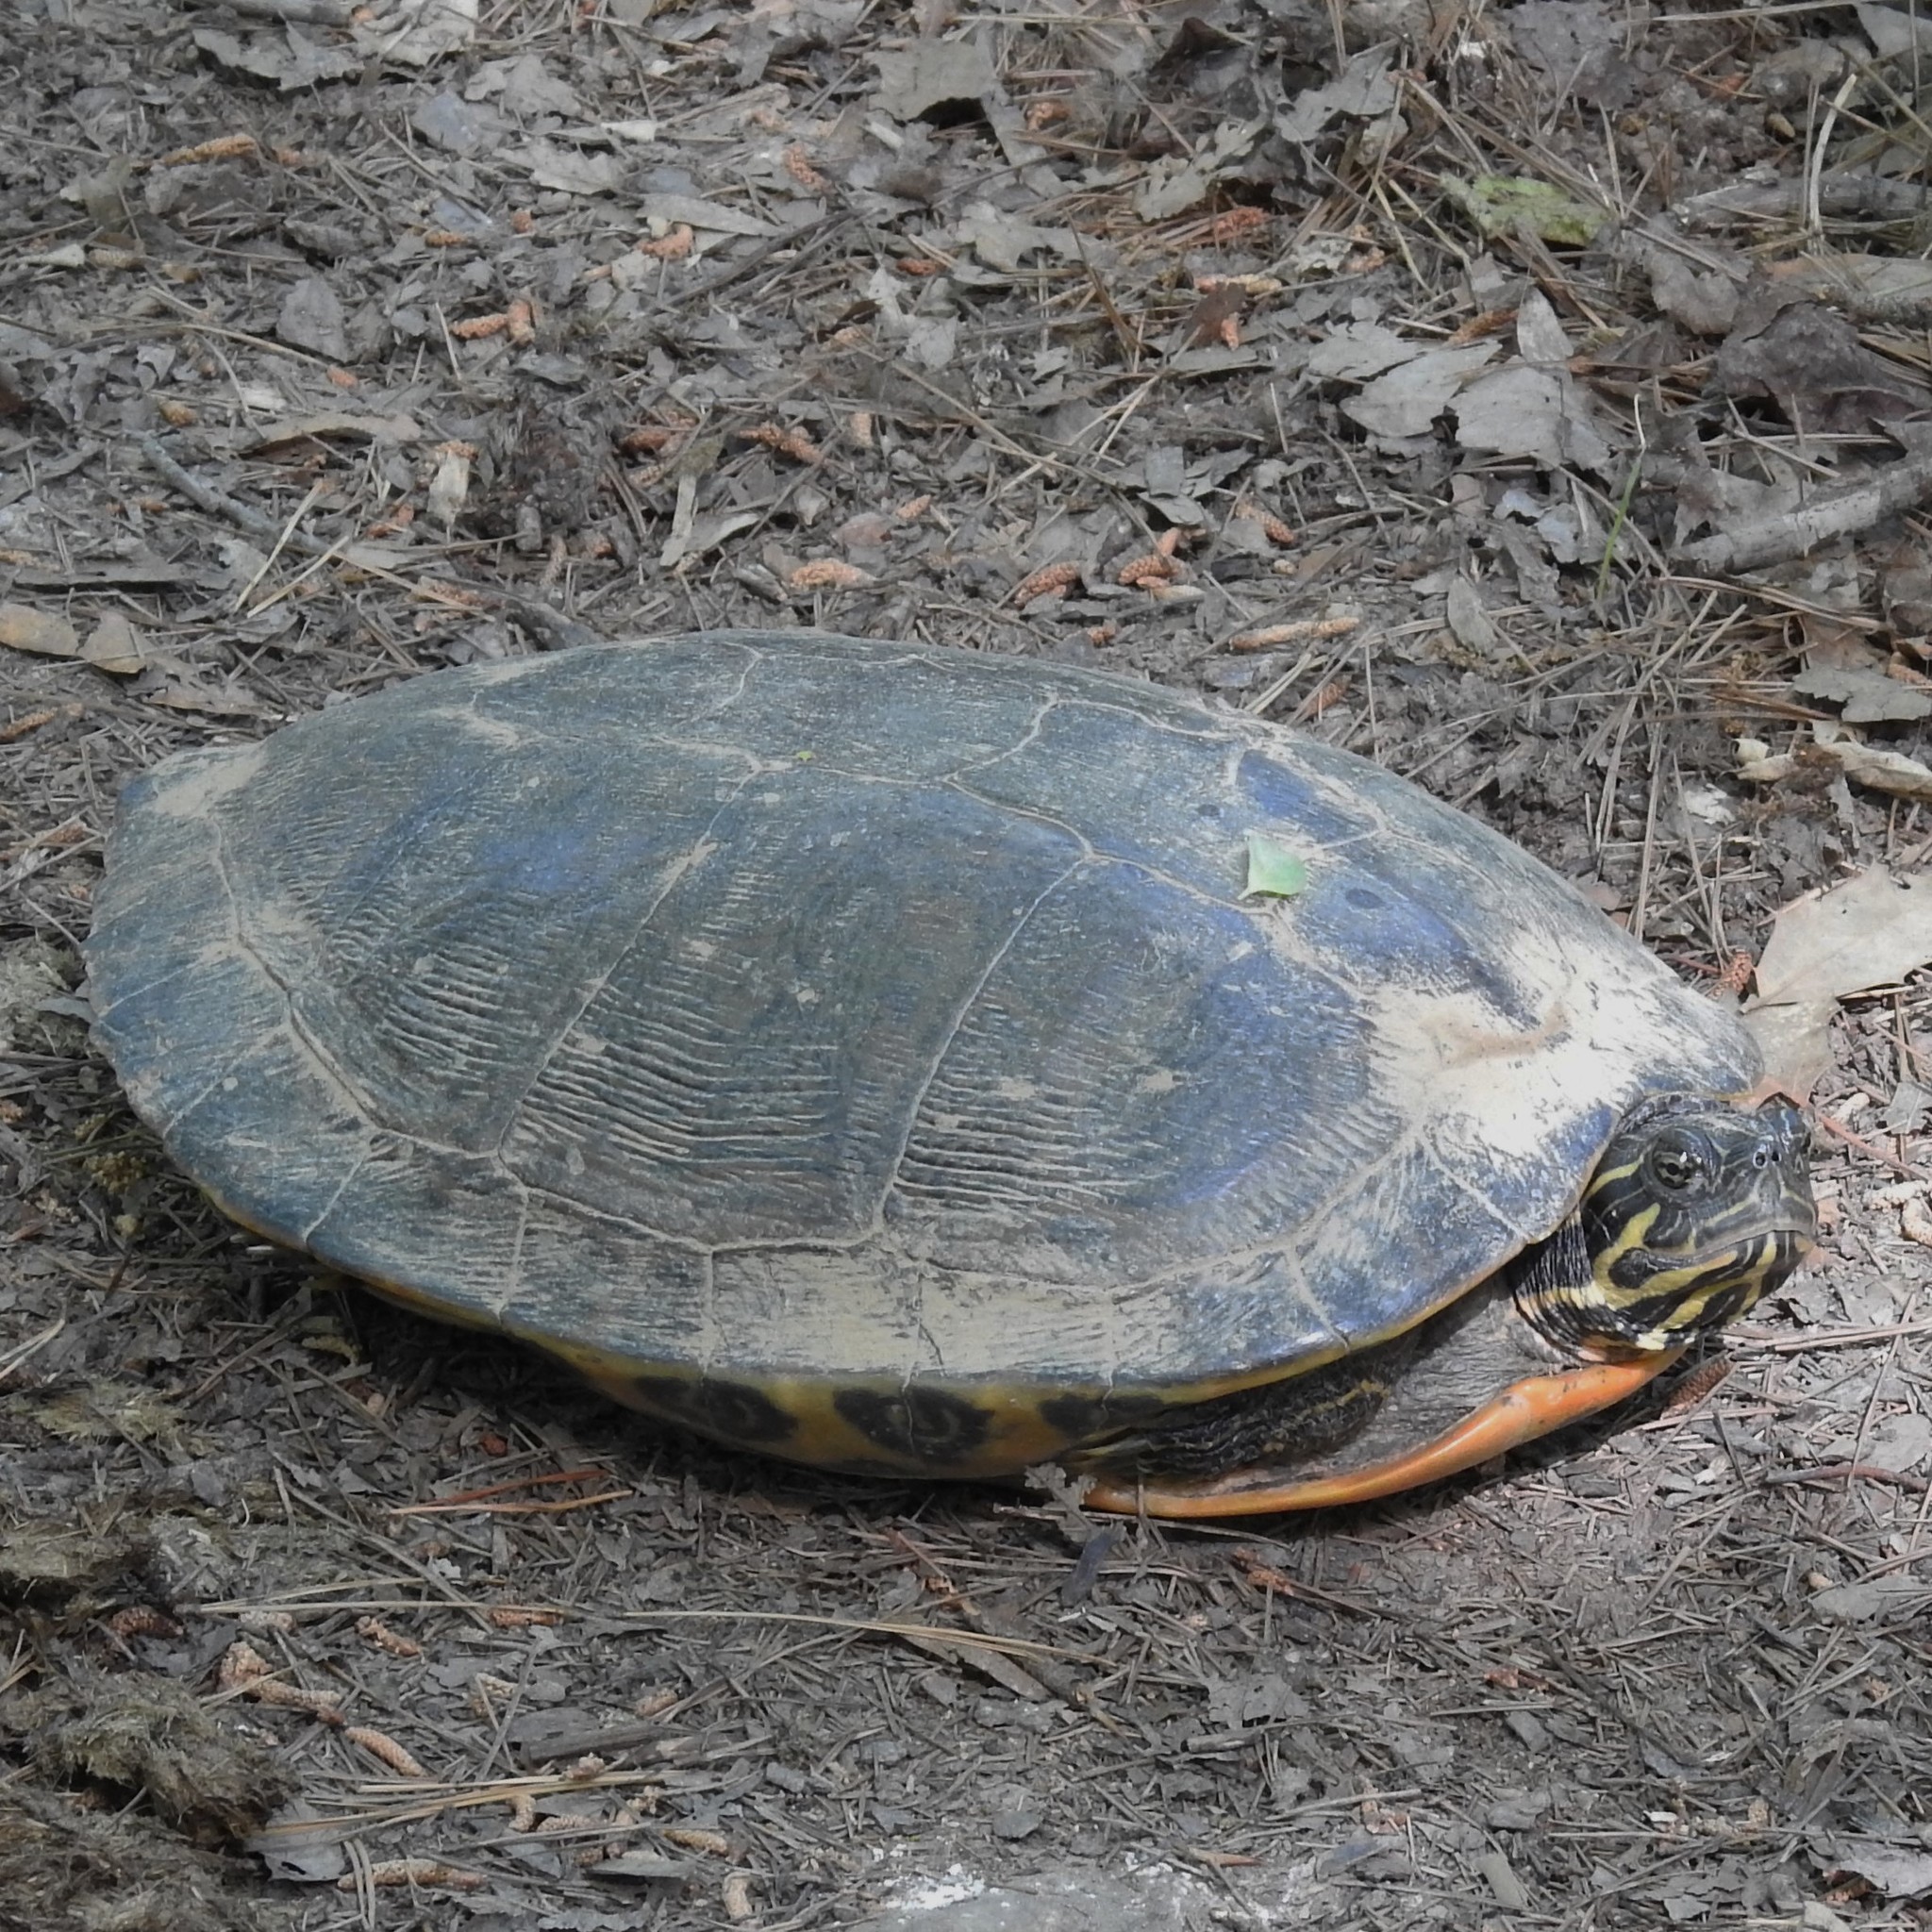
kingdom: Animalia
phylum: Chordata
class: Testudines
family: Emydidae
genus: Pseudemys
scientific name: Pseudemys concinna
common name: Eastern river cooter
